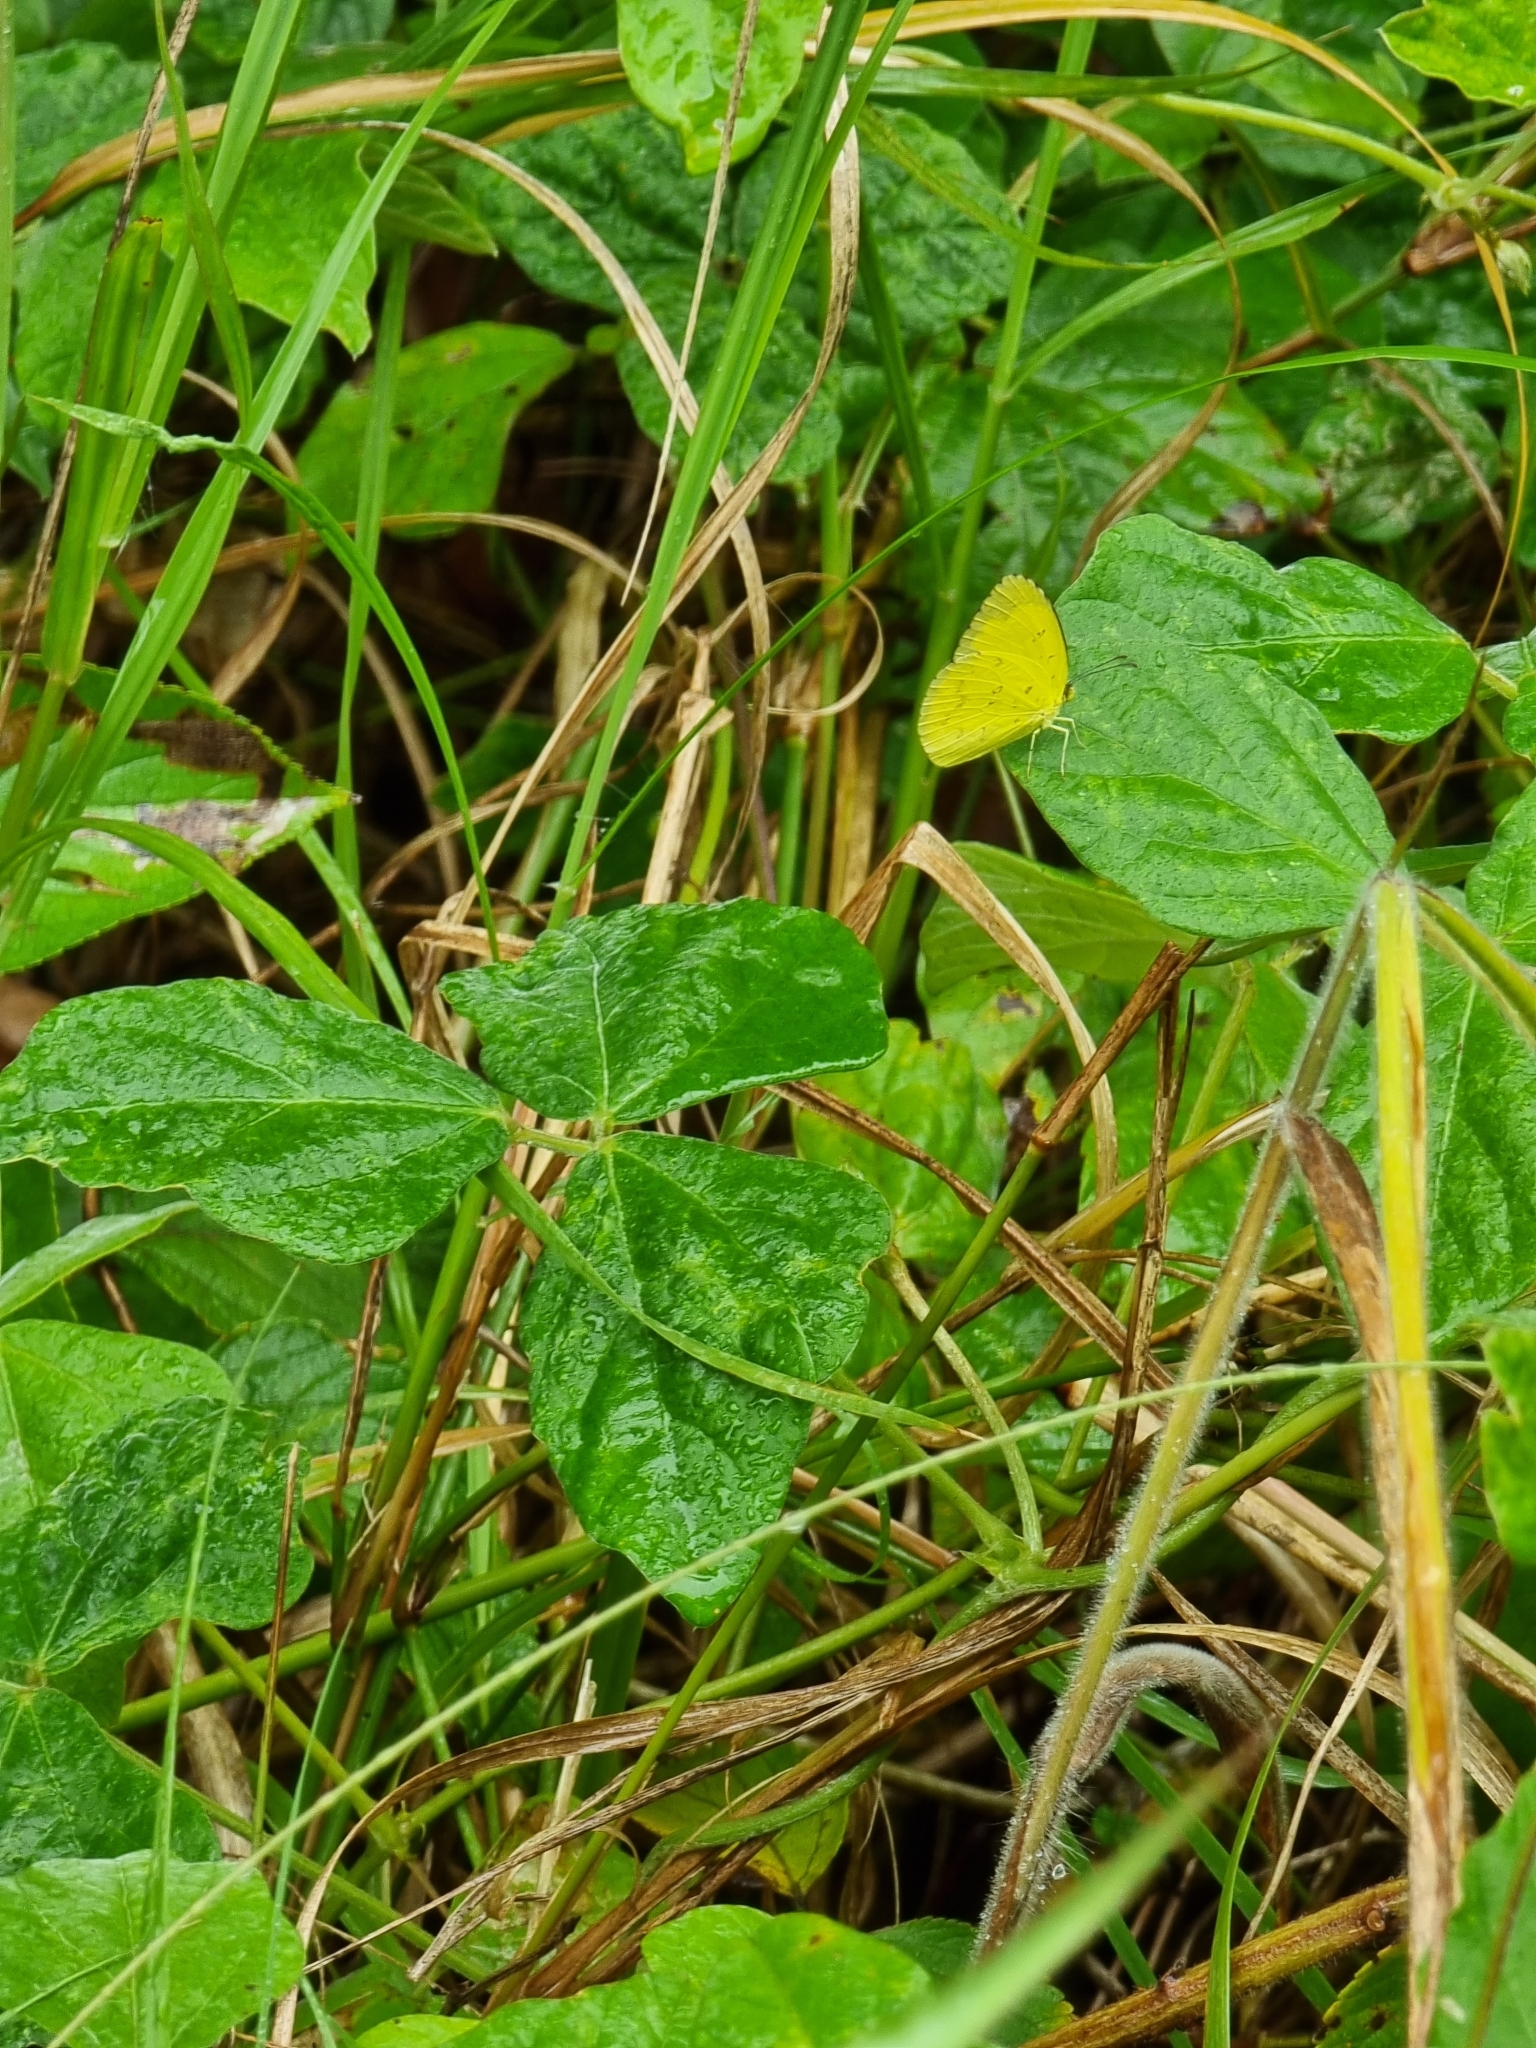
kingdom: Animalia
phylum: Arthropoda
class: Insecta
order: Lepidoptera
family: Pieridae
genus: Eurema
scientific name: Eurema hecabe
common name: Pale grass yellow
